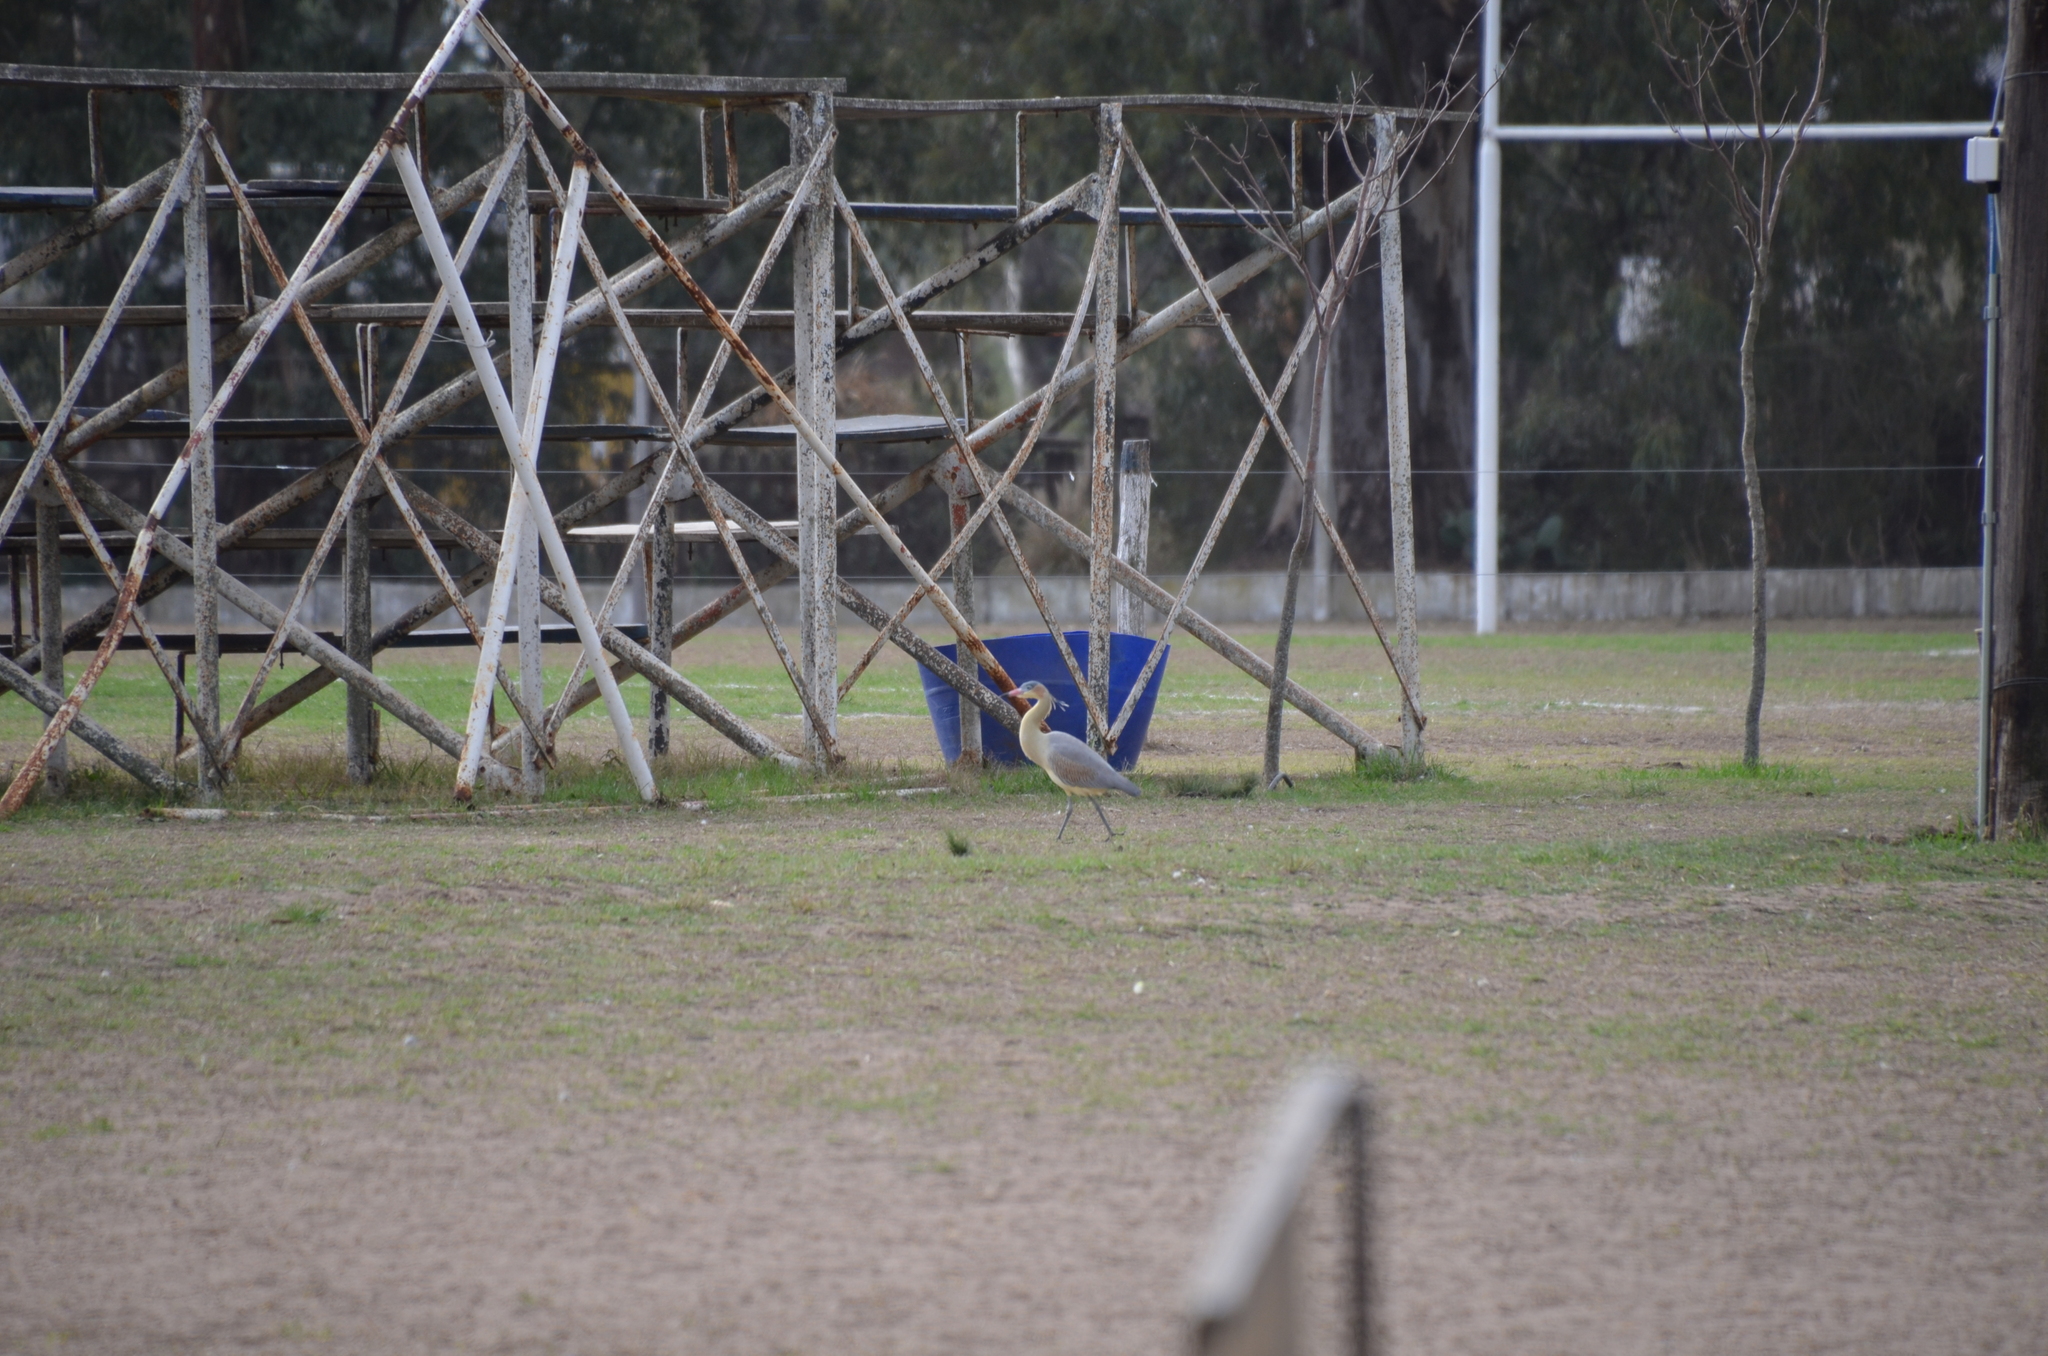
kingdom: Animalia
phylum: Chordata
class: Aves
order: Pelecaniformes
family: Ardeidae
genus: Syrigma
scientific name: Syrigma sibilatrix
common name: Whistling heron
